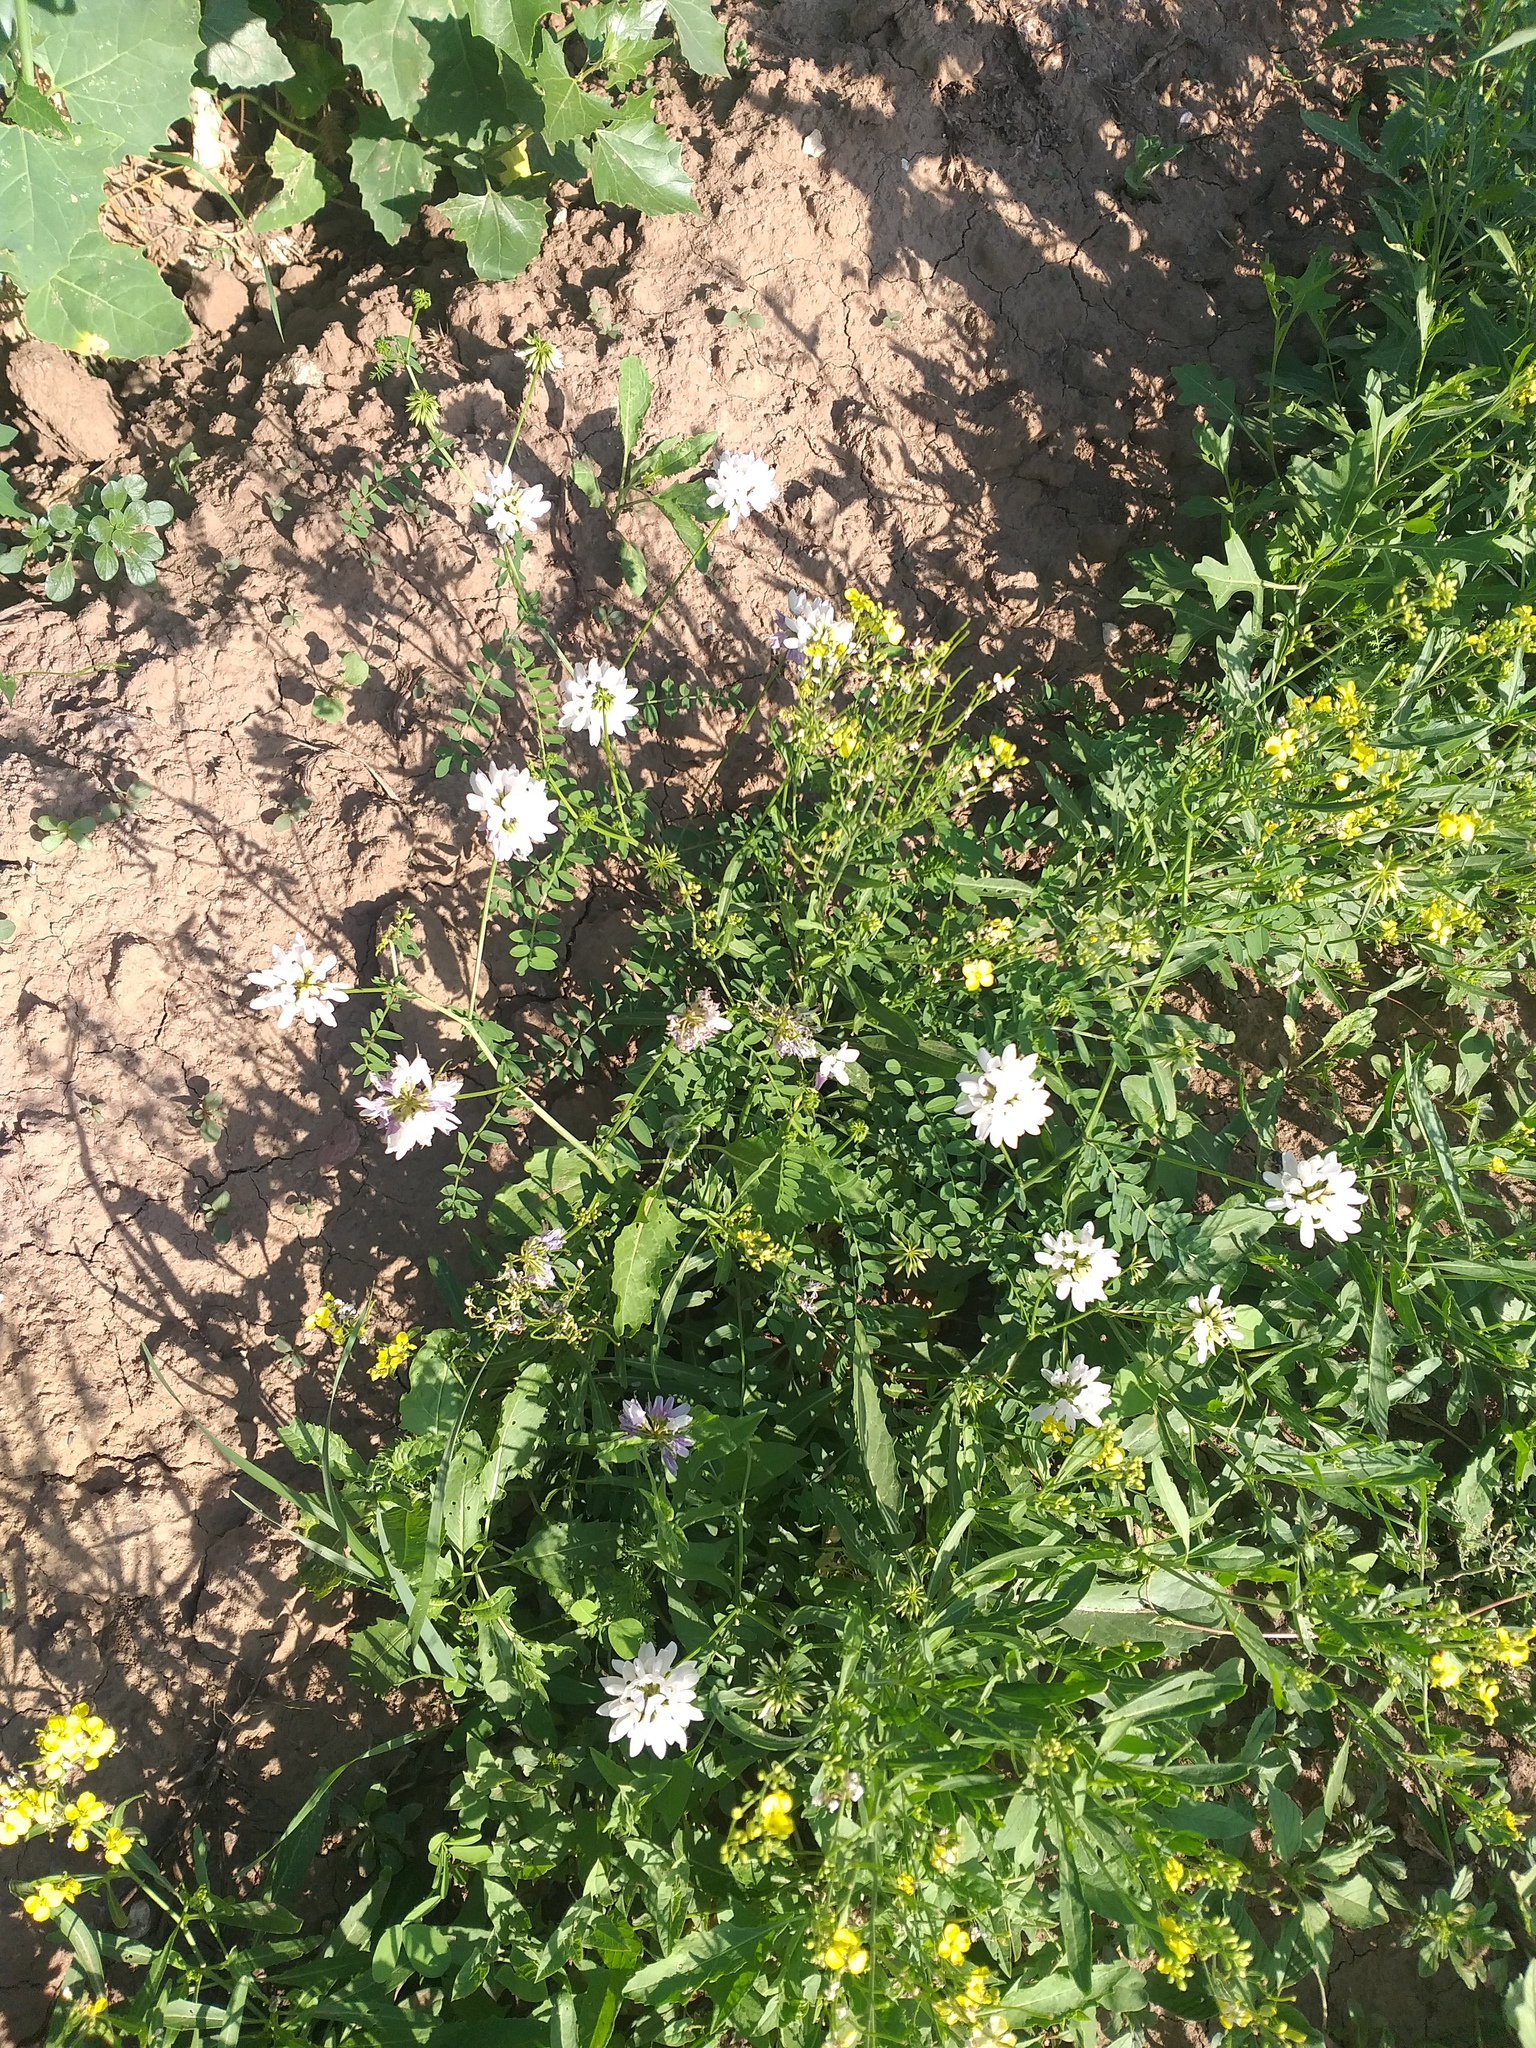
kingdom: Plantae
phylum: Tracheophyta
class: Magnoliopsida
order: Fabales
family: Fabaceae
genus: Coronilla
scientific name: Coronilla varia
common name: Crownvetch
